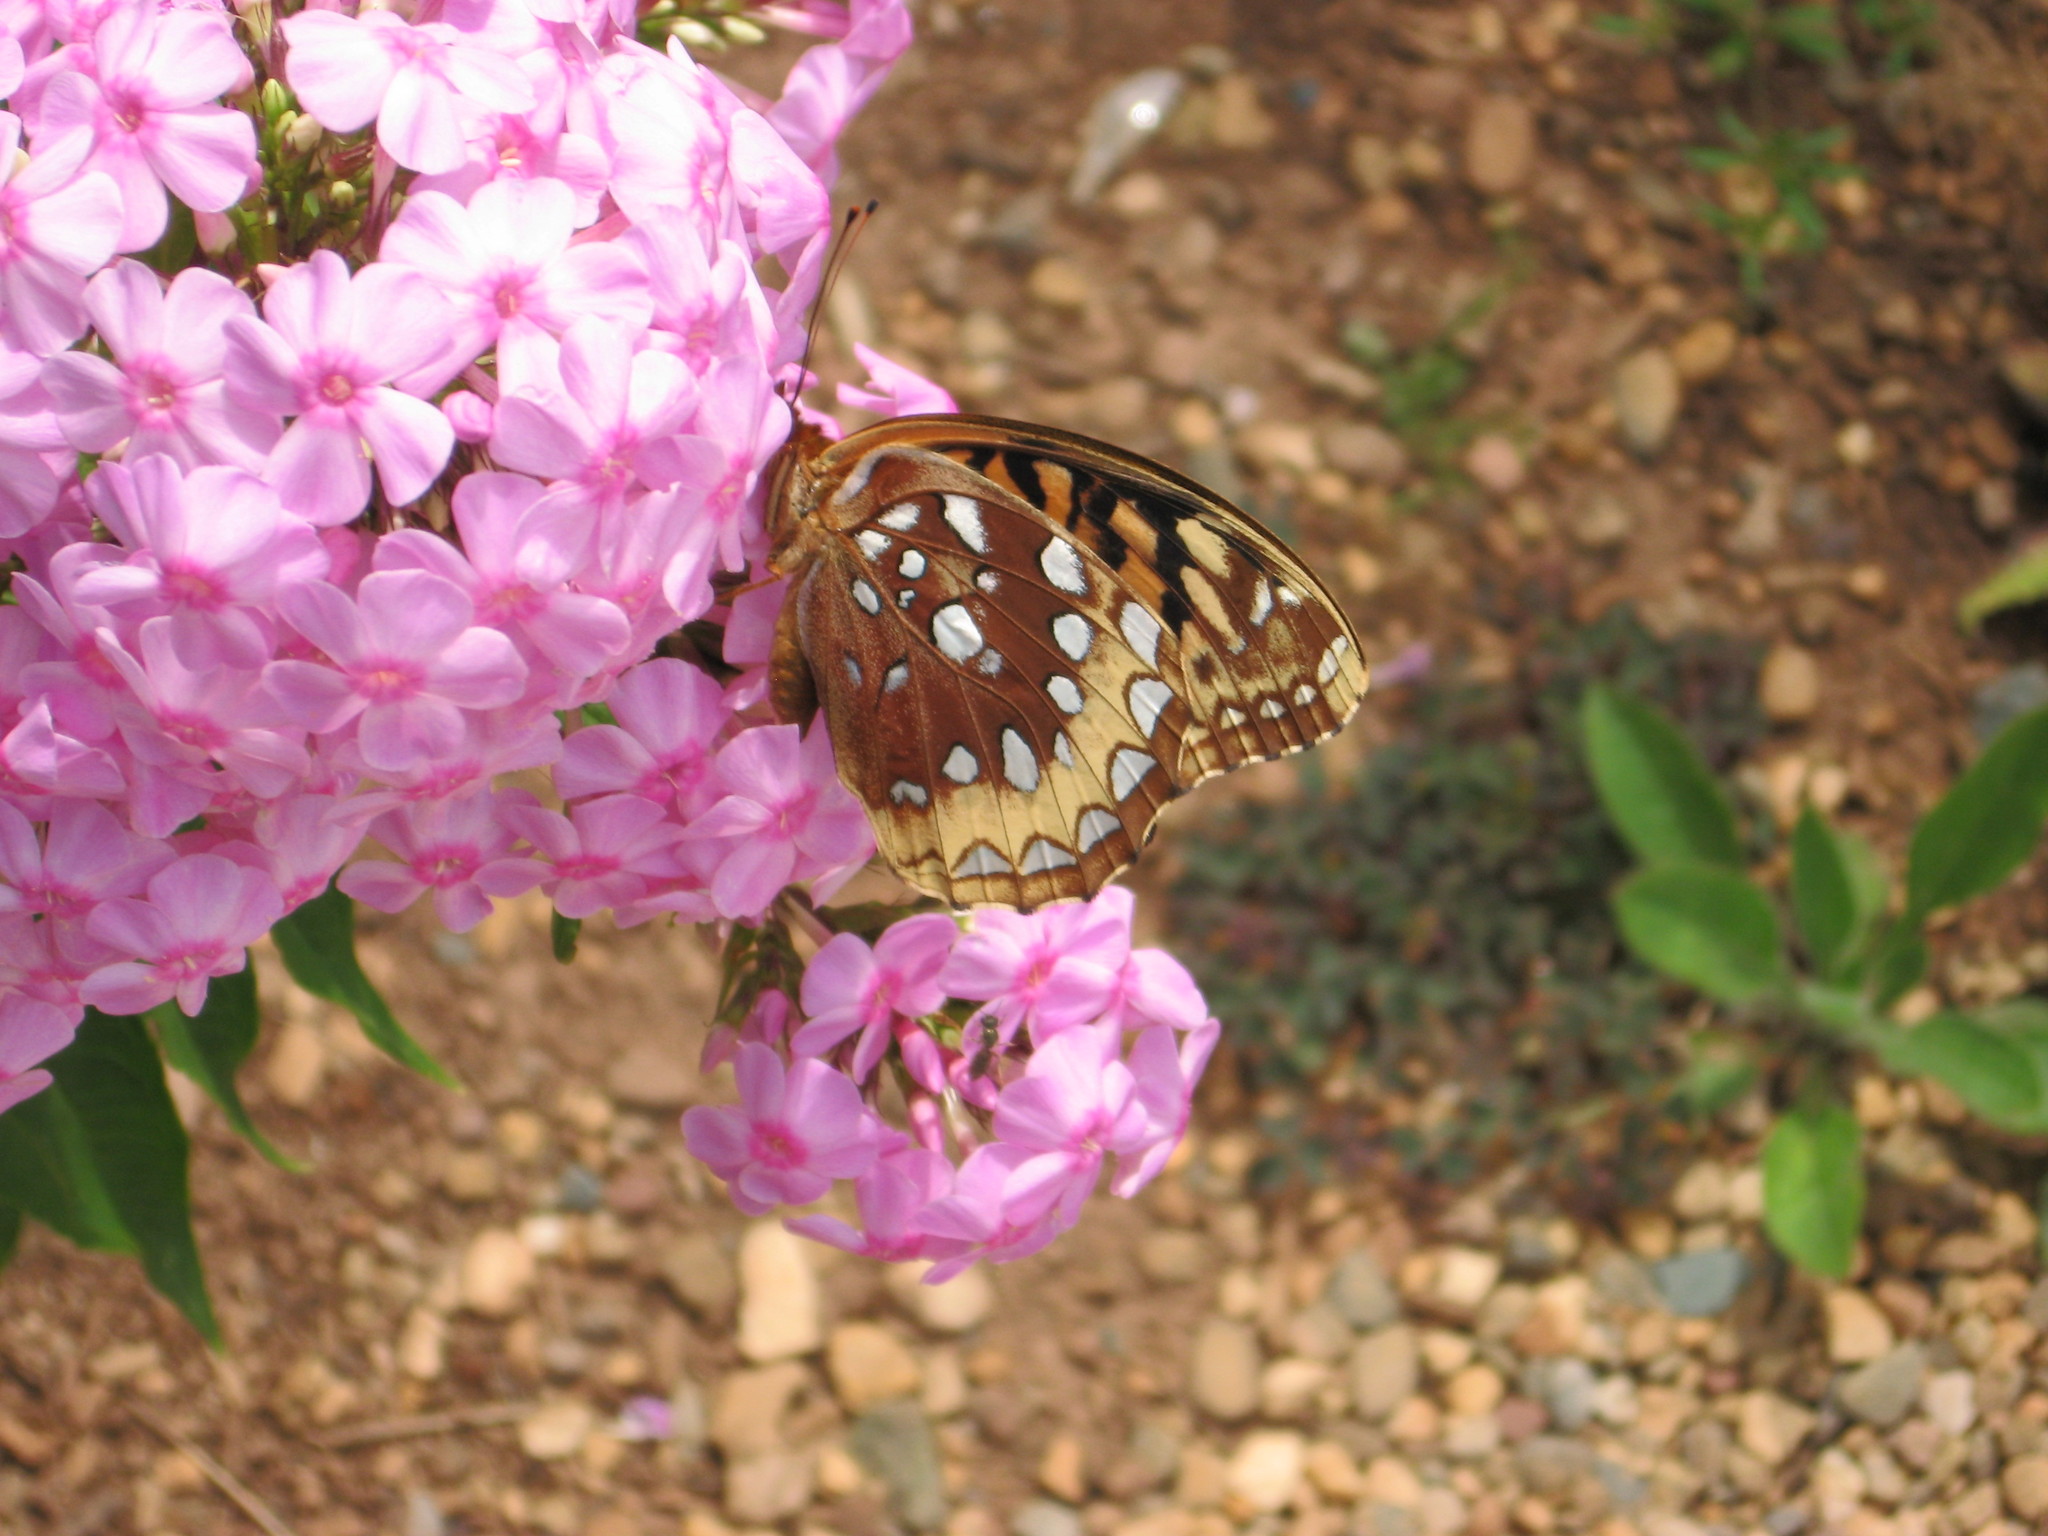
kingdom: Animalia
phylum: Arthropoda
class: Insecta
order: Lepidoptera
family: Nymphalidae
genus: Speyeria
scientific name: Speyeria cybele
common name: Great spangled fritillary
